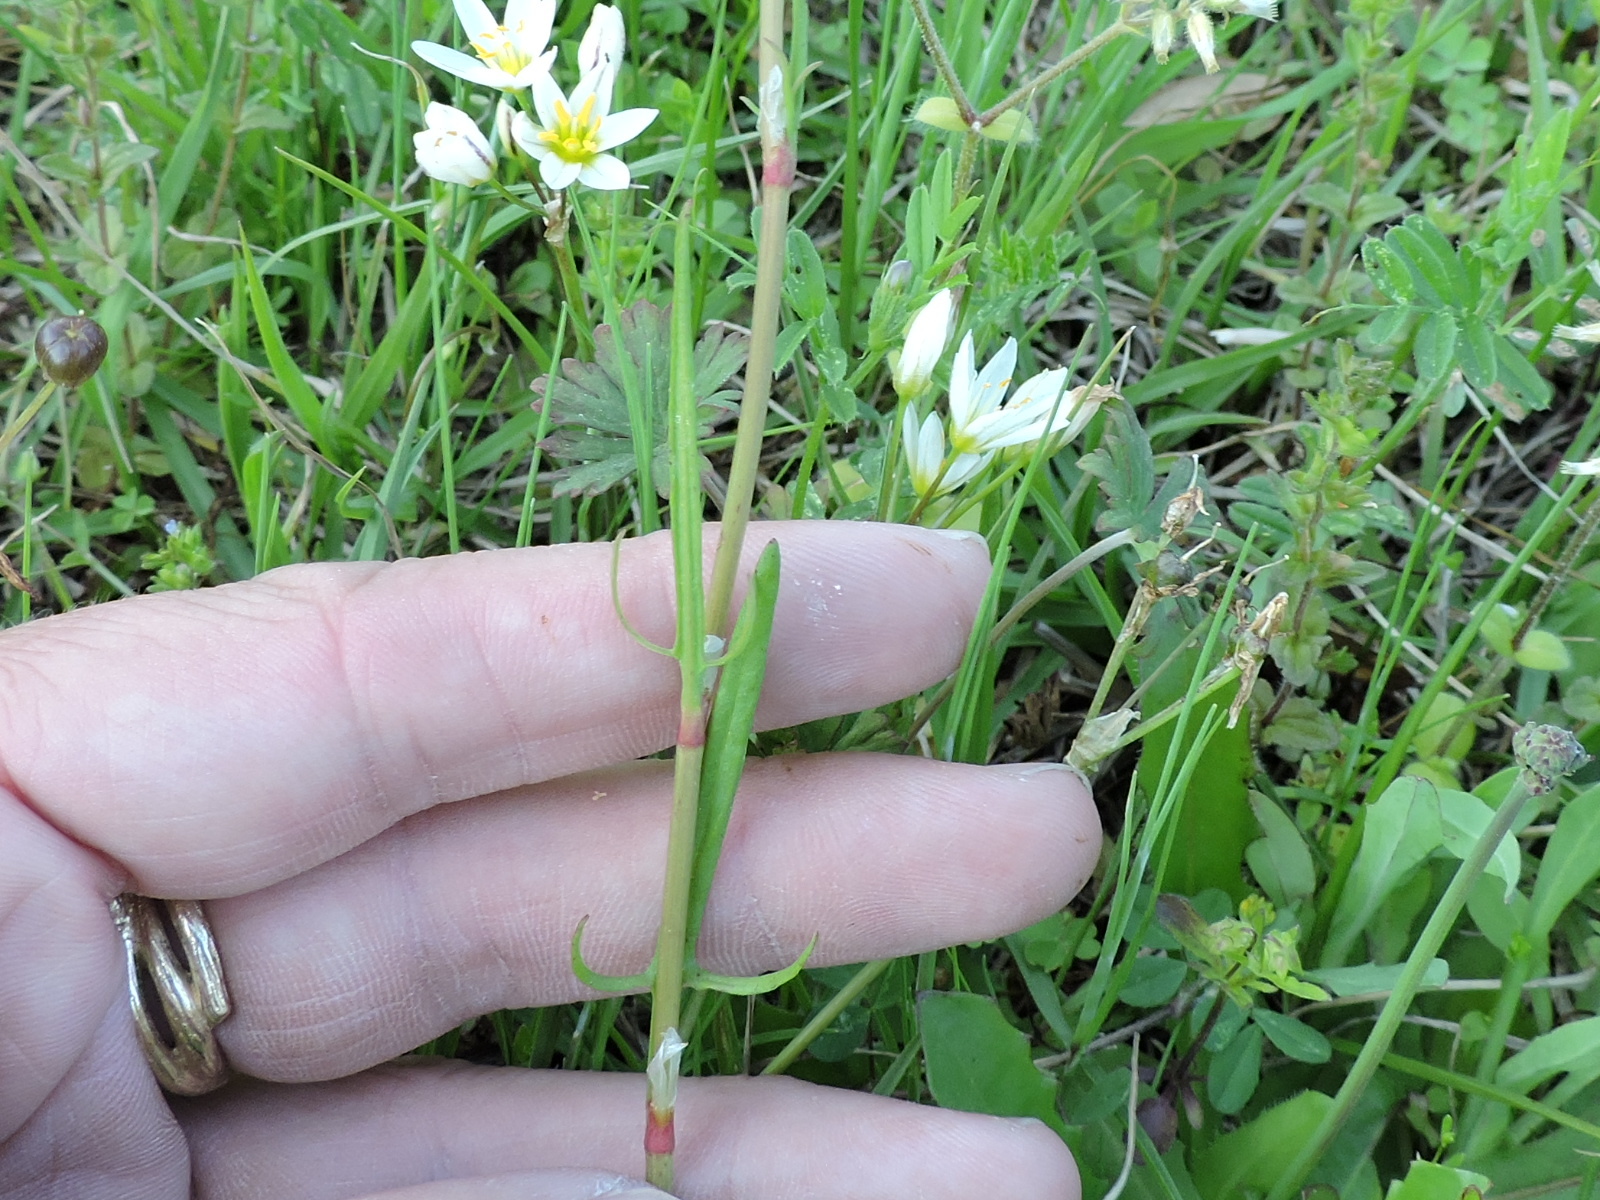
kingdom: Plantae
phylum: Tracheophyta
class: Magnoliopsida
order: Caryophyllales
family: Polygonaceae
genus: Rumex
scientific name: Rumex hastatulus
